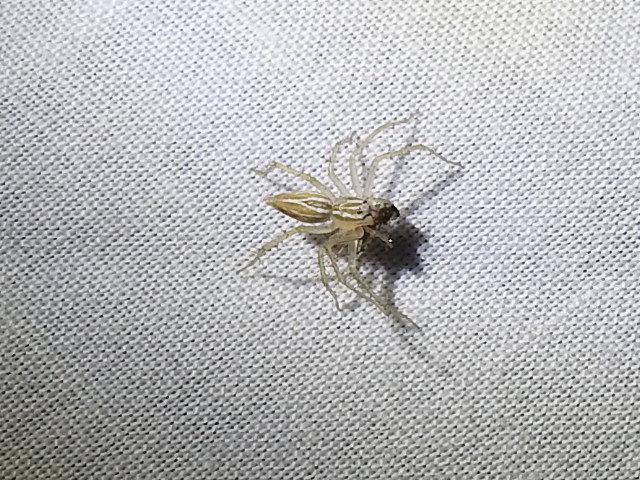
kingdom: Animalia
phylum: Arthropoda
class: Arachnida
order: Araneae
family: Oxyopidae
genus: Oxyopes
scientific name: Oxyopes salticus
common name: Lynx spiders
